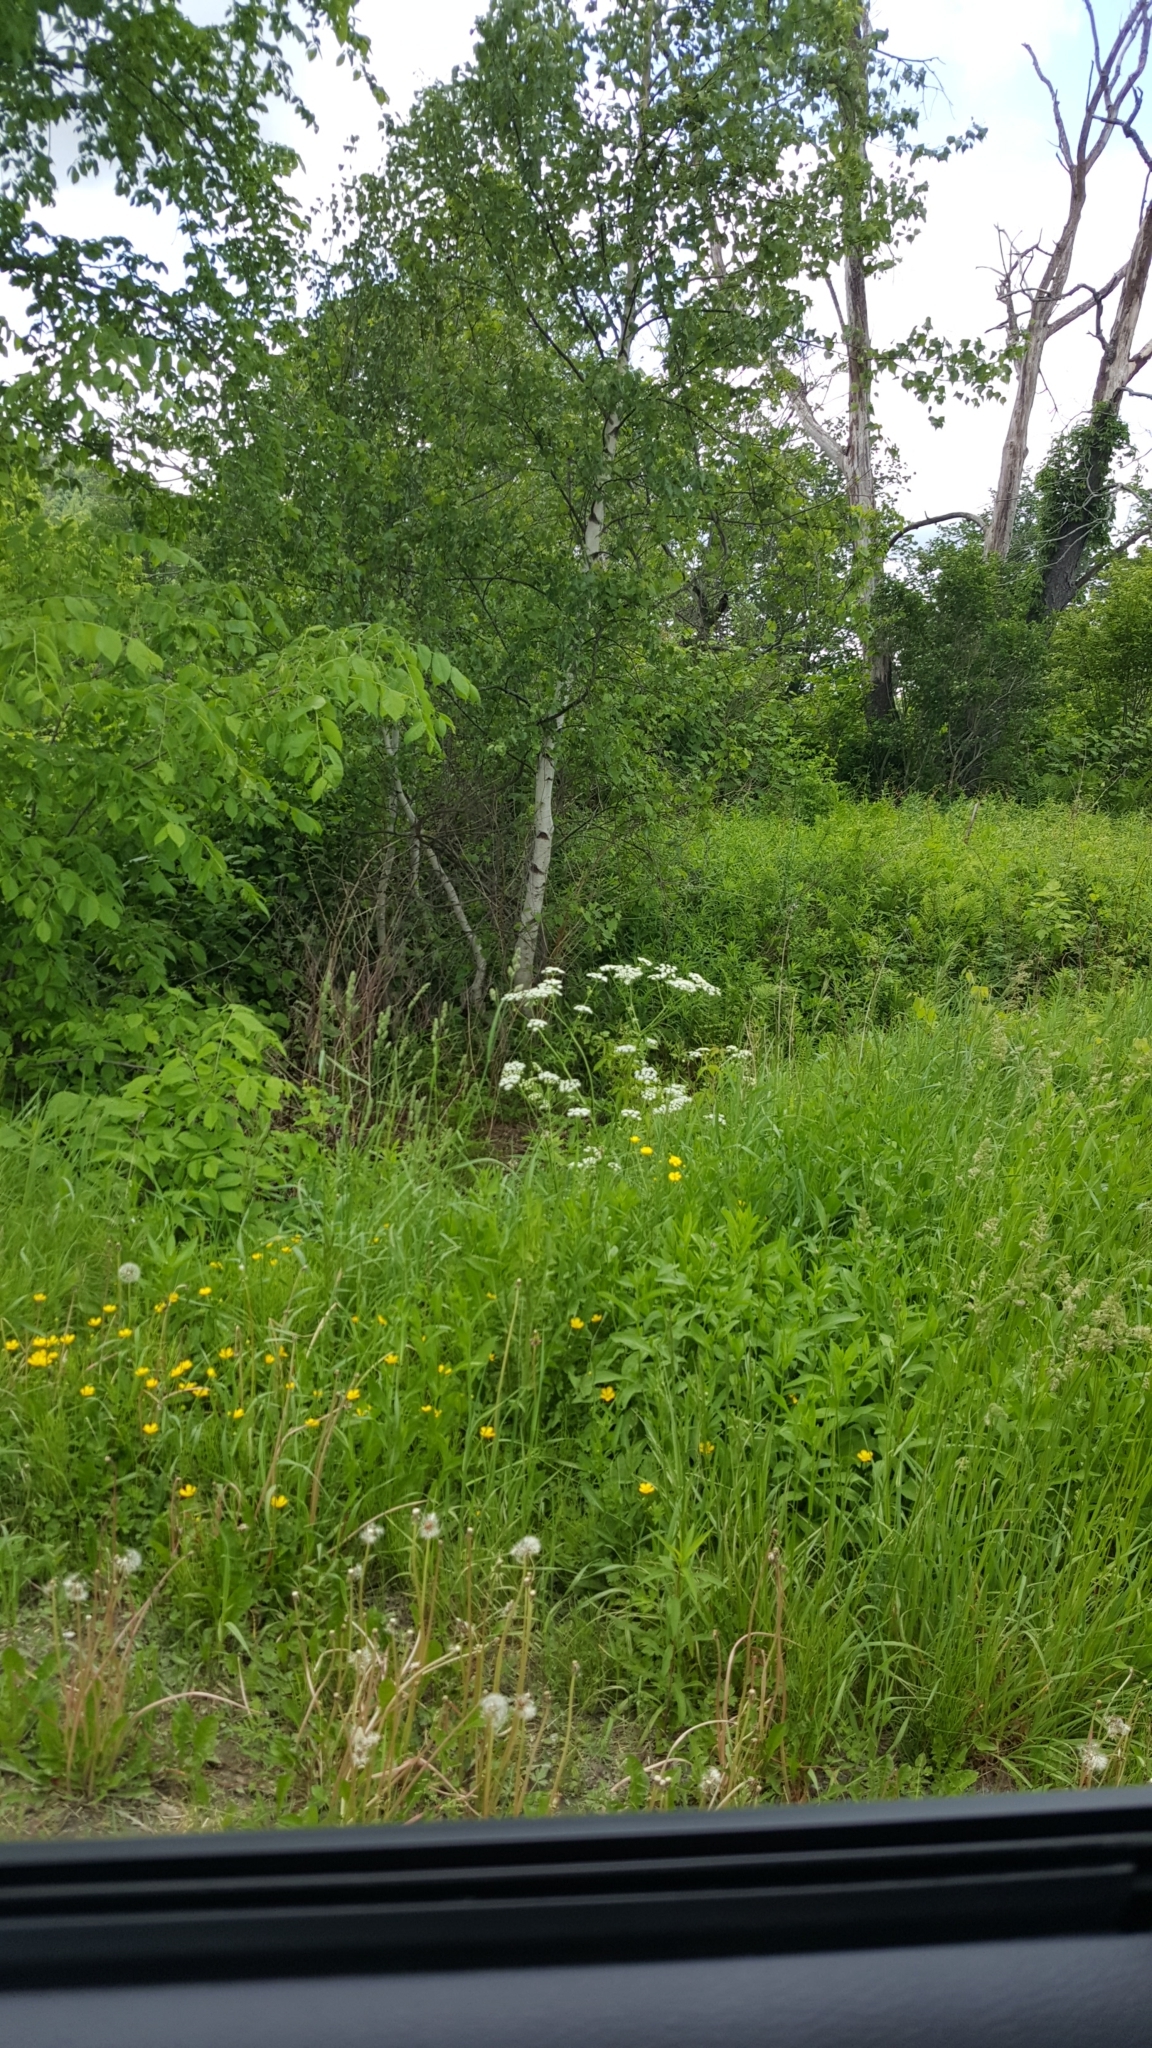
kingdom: Plantae
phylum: Tracheophyta
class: Magnoliopsida
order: Apiales
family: Apiaceae
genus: Anthriscus
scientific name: Anthriscus sylvestris
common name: Cow parsley
